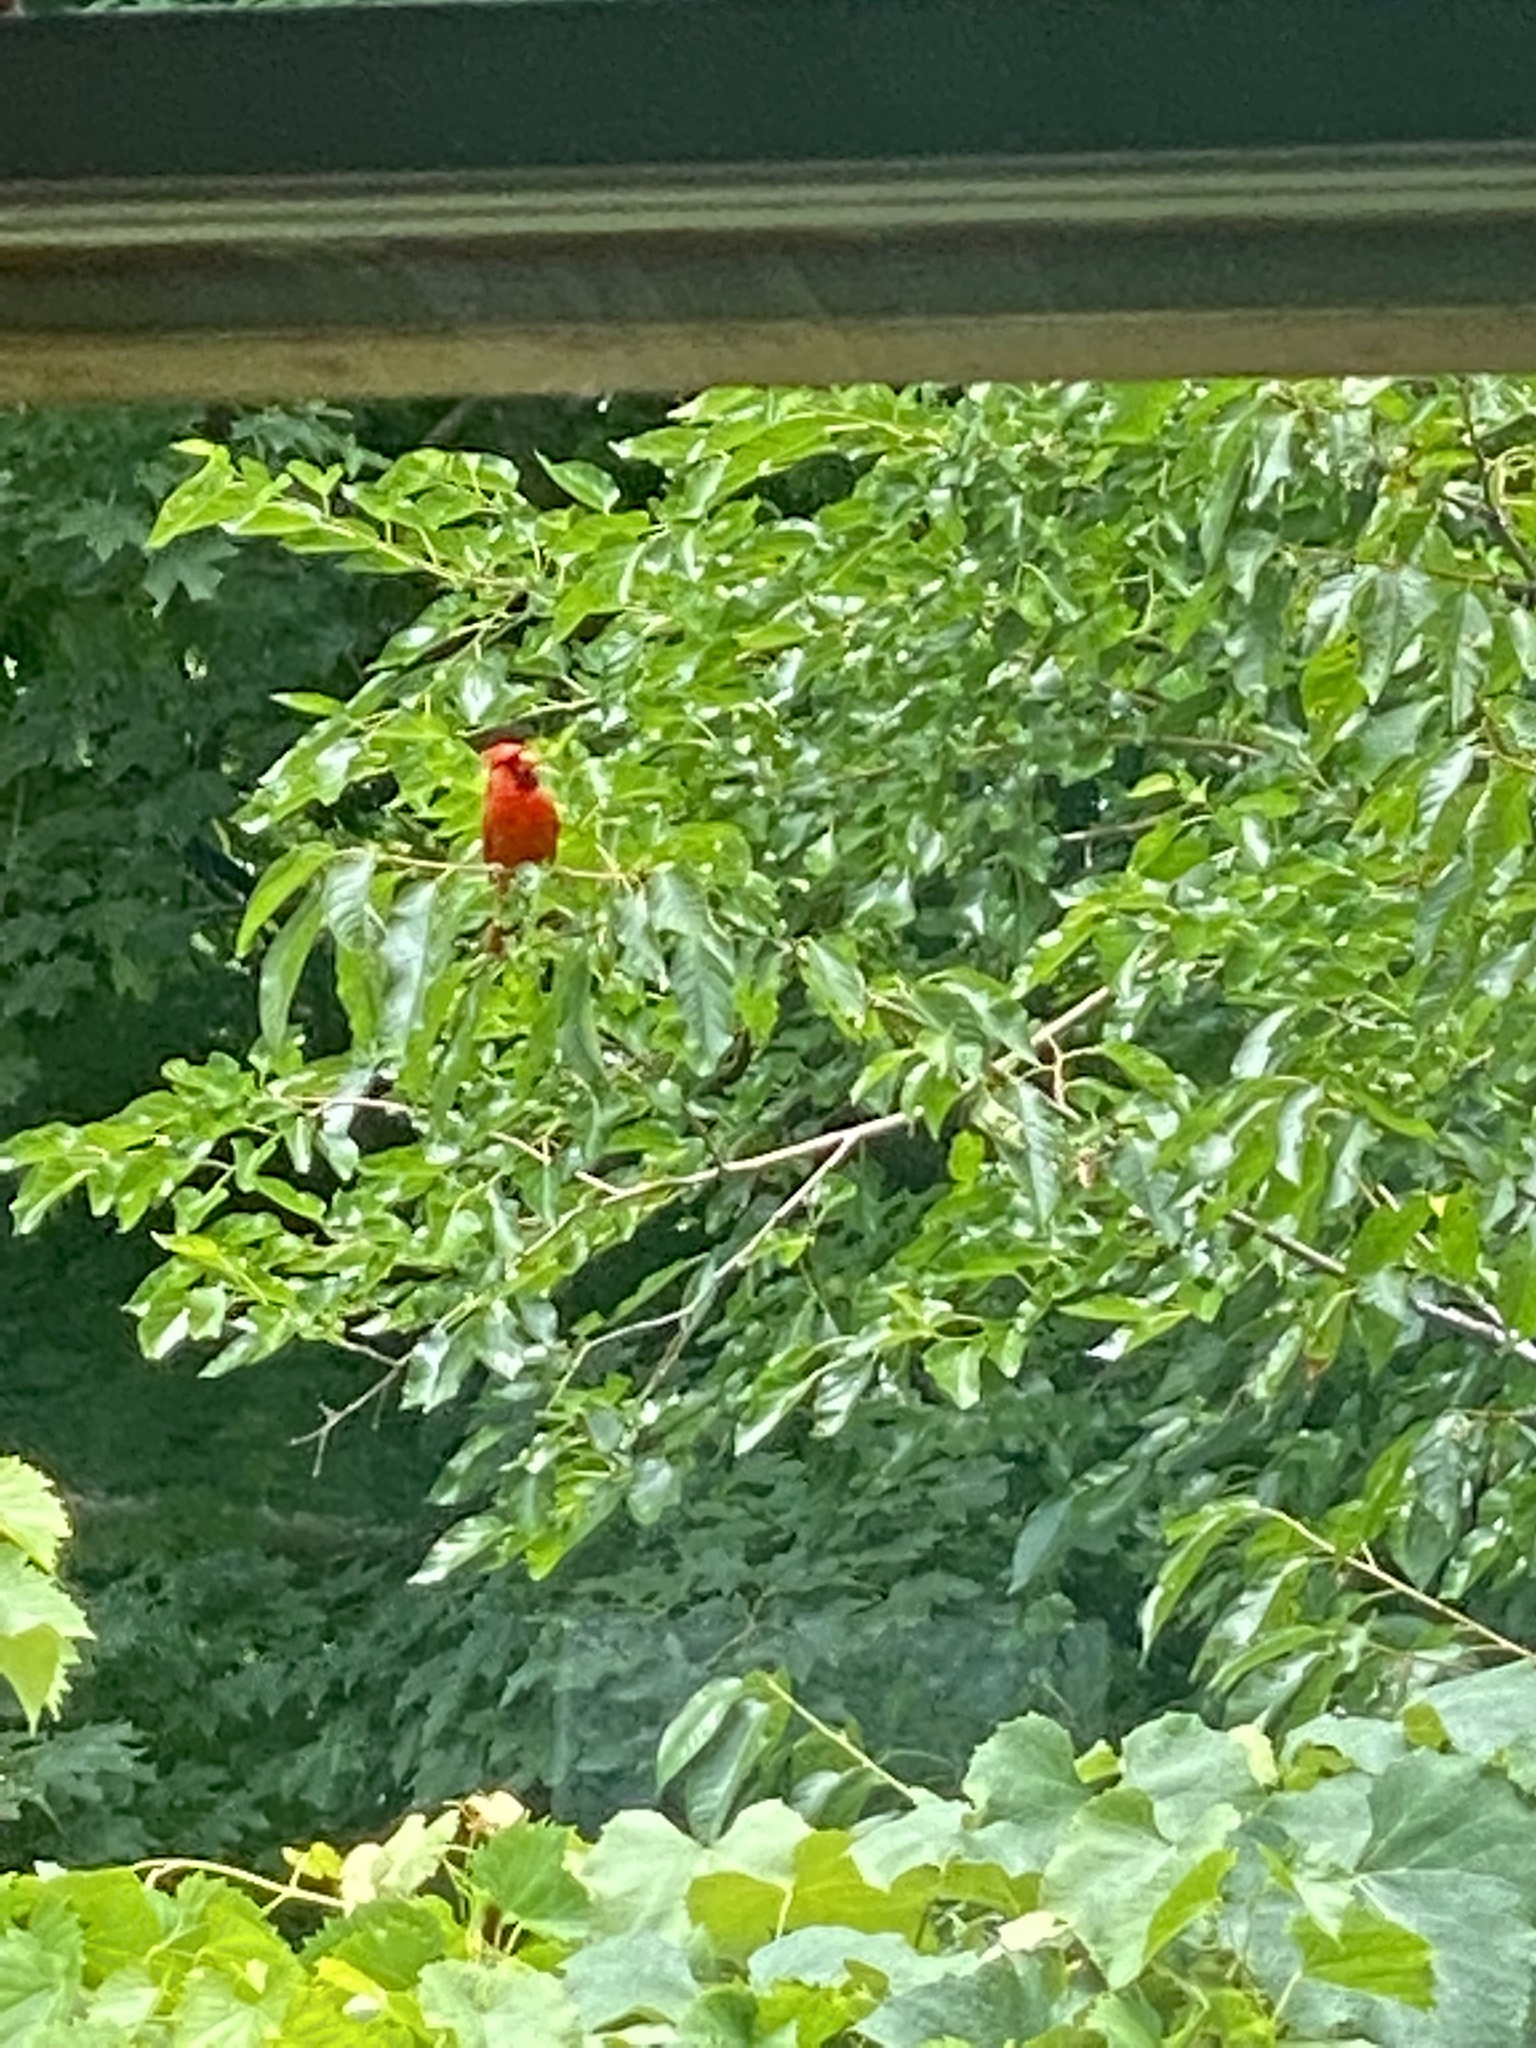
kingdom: Animalia
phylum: Chordata
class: Aves
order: Passeriformes
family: Cardinalidae
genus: Cardinalis
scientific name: Cardinalis cardinalis
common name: Northern cardinal
